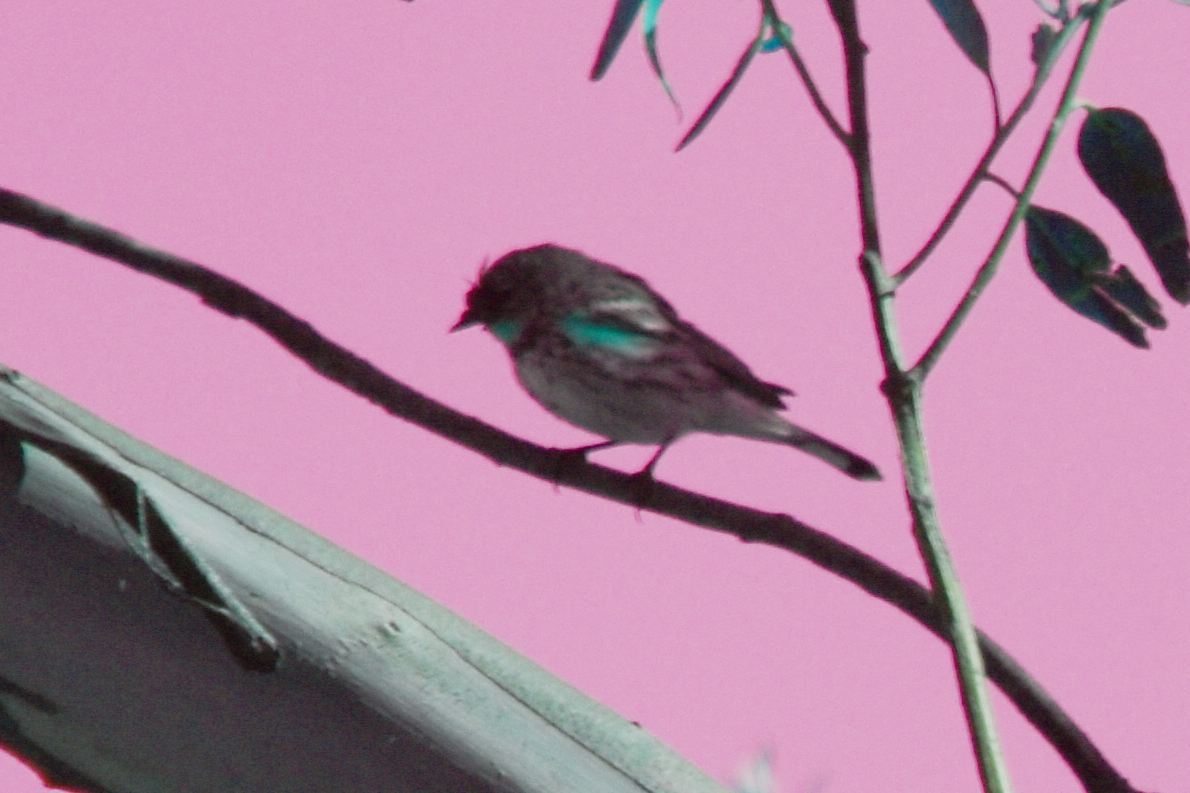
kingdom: Animalia
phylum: Chordata
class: Aves
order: Passeriformes
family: Parulidae
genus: Setophaga
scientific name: Setophaga coronata
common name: Myrtle warbler
